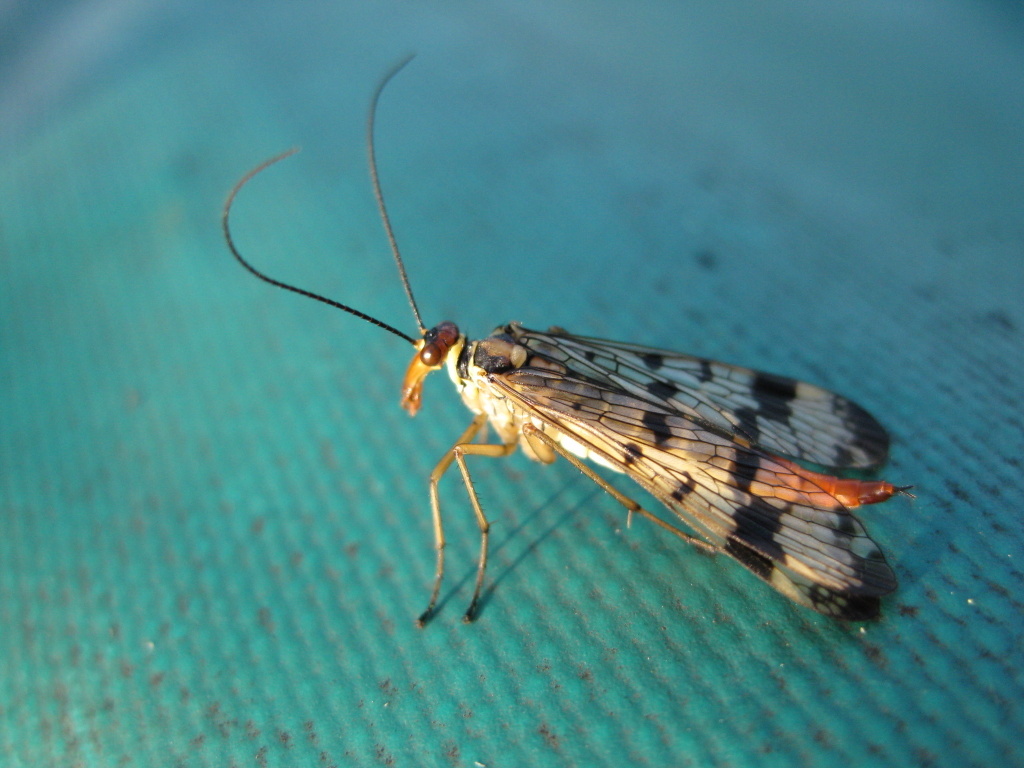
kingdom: Animalia
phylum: Arthropoda
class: Insecta
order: Mecoptera
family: Panorpidae
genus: Panorpa
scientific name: Panorpa communis
